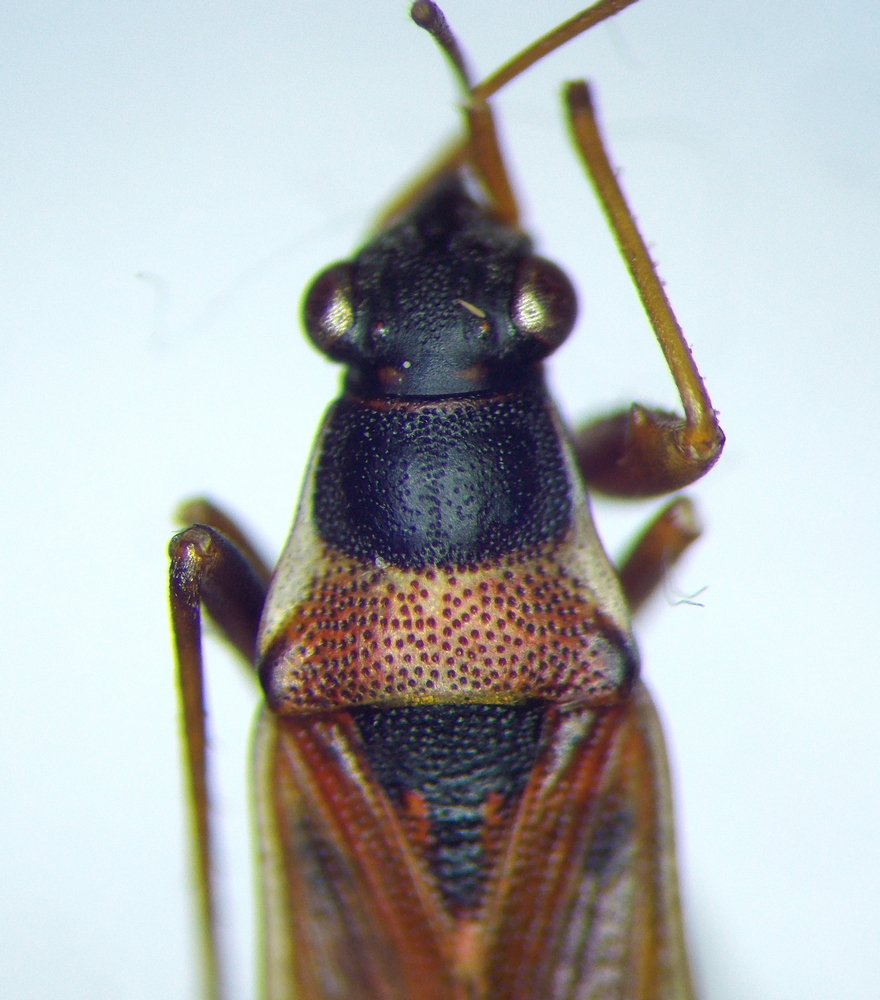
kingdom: Animalia
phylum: Arthropoda
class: Insecta
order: Hemiptera
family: Rhyparochromidae
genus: Beosus
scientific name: Beosus quadripunctatus
